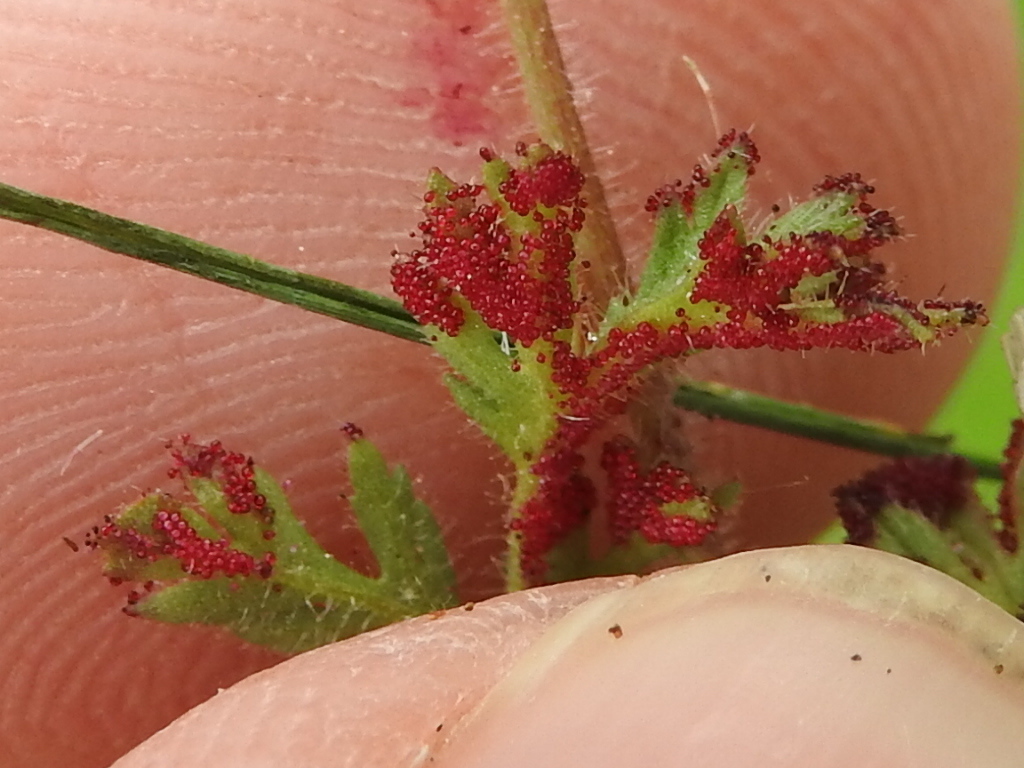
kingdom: Fungi
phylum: Chytridiomycota
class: Chytridiomycetes
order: Chytridiales
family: Synchytriaceae
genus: Synchytrium
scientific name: Synchytrium papillatum
